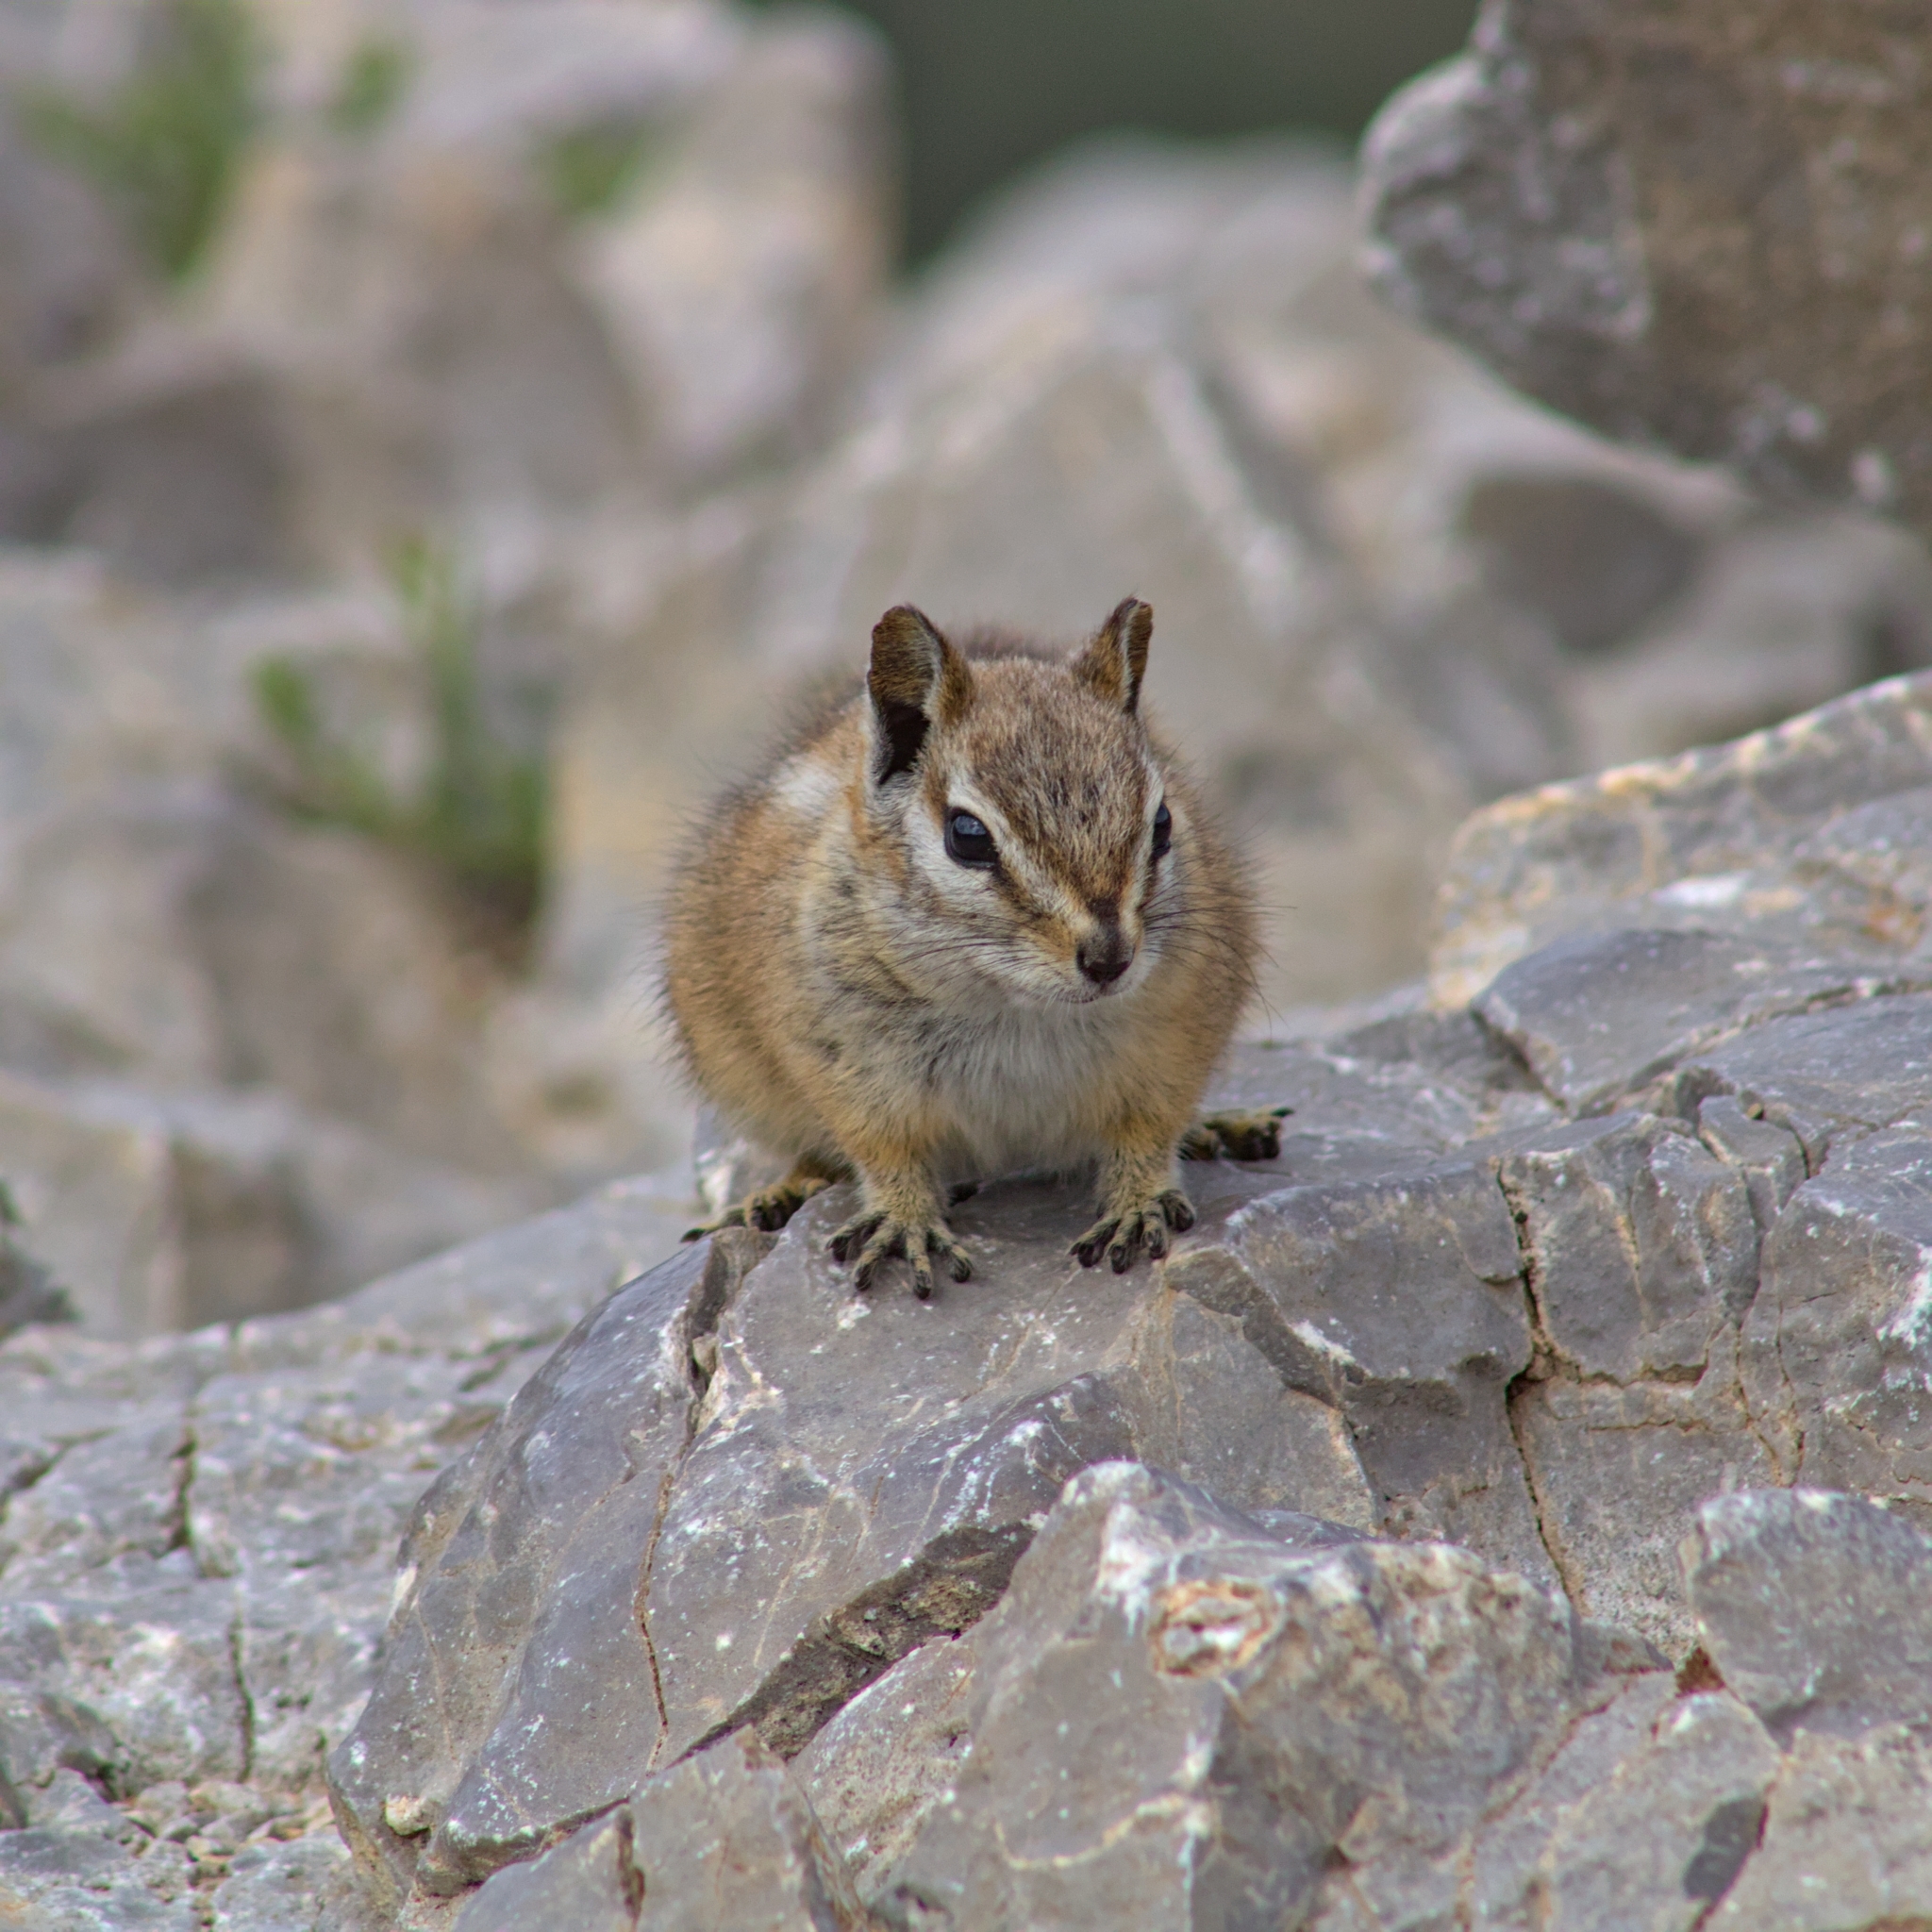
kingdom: Animalia
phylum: Chordata
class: Mammalia
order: Rodentia
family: Sciuridae
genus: Tamias
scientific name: Tamias palmeri
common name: Palmer's chipmunk
